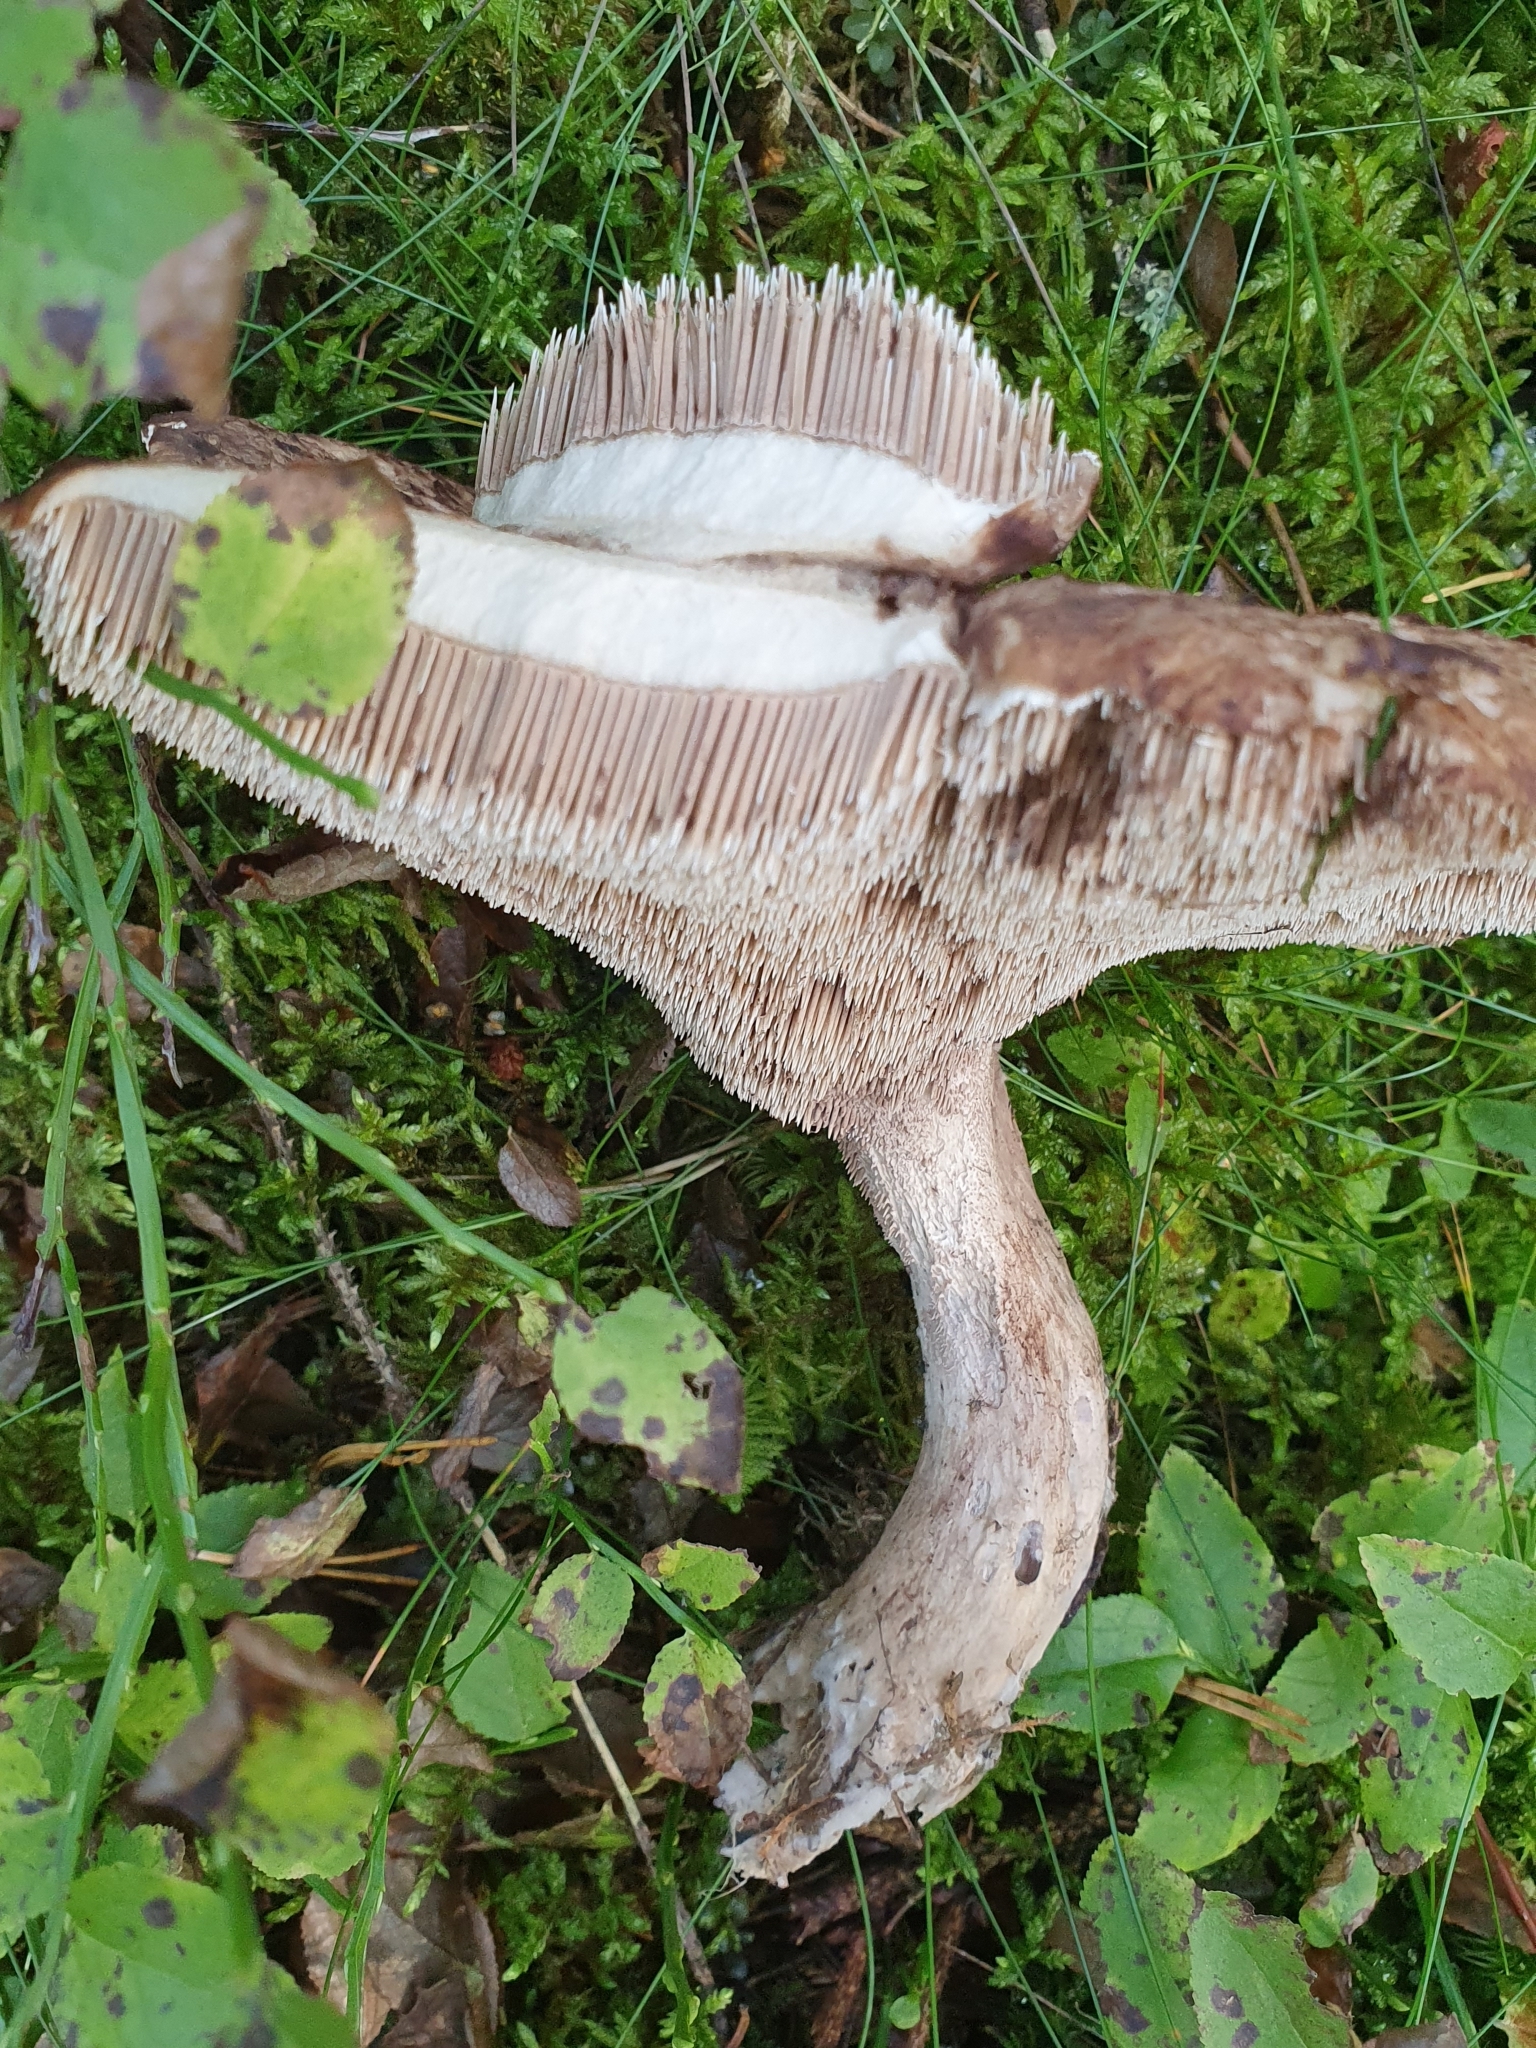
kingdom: Fungi
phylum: Basidiomycota
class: Agaricomycetes
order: Thelephorales
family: Bankeraceae
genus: Sarcodon
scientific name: Sarcodon imbricatus
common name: Shingled hedgehog
